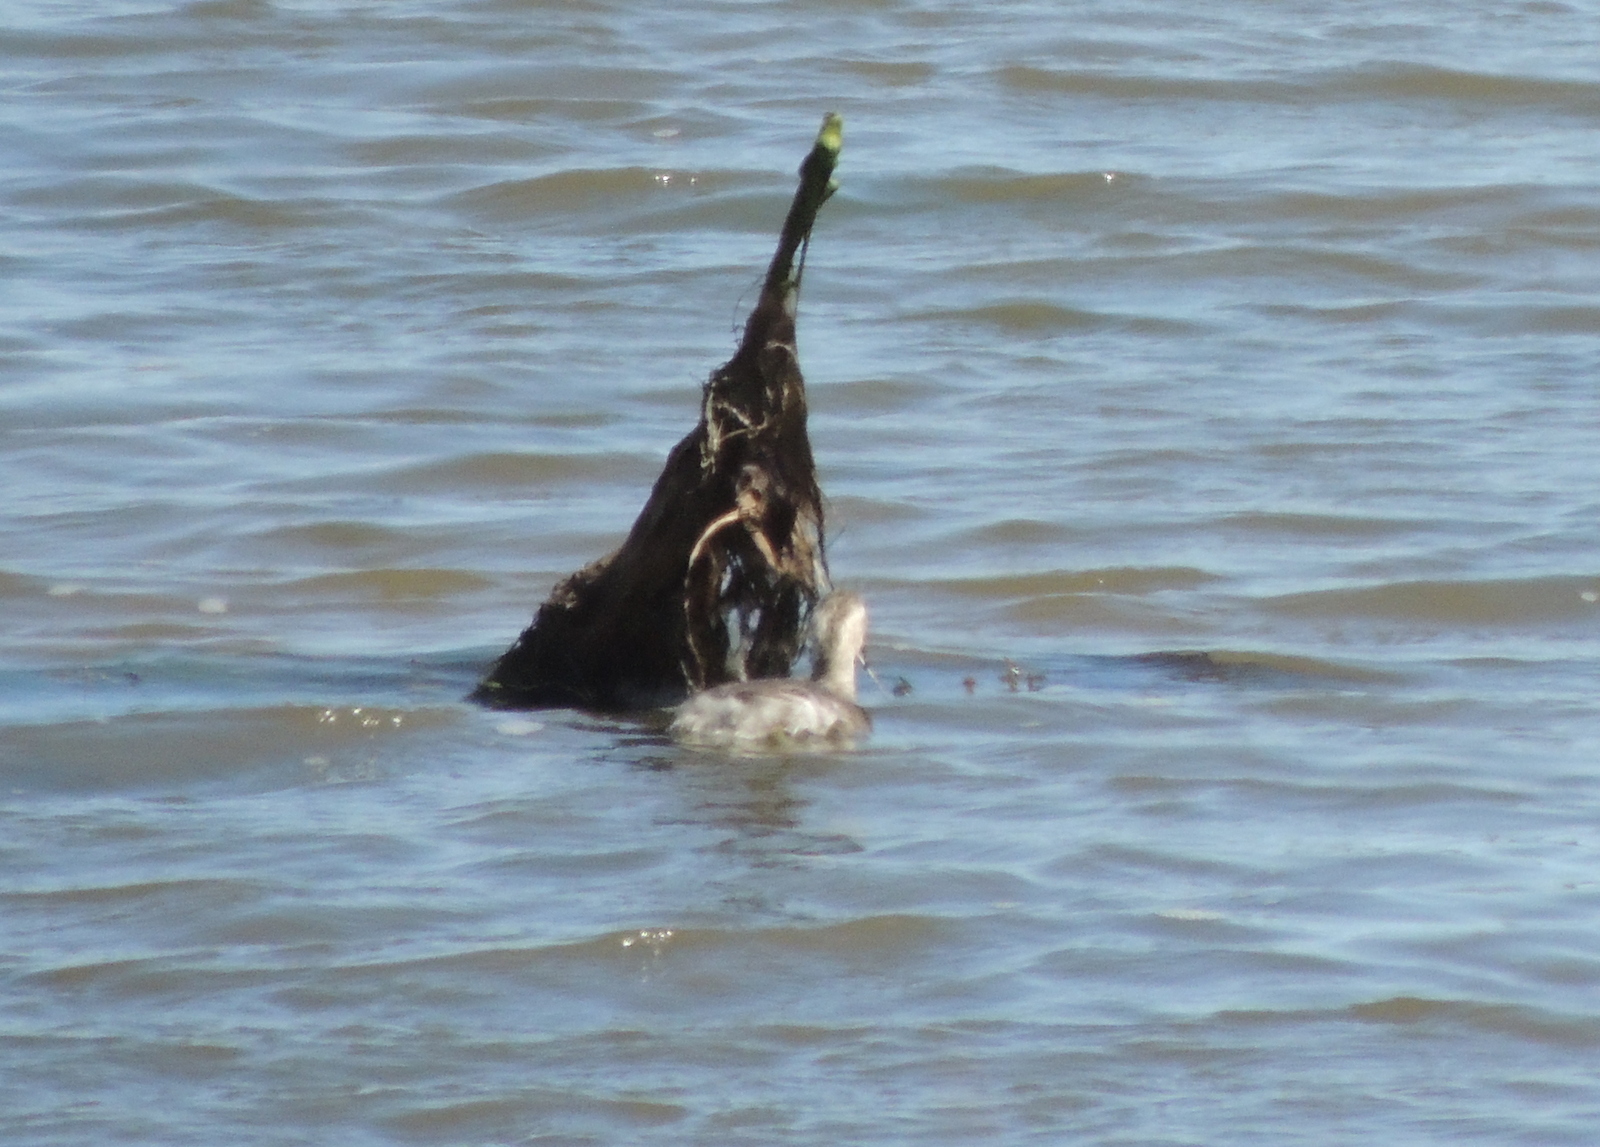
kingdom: Animalia
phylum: Chordata
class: Aves
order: Podicipediformes
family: Podicipedidae
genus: Poliocephalus
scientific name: Poliocephalus poliocephalus
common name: Hoary-headed grebe
